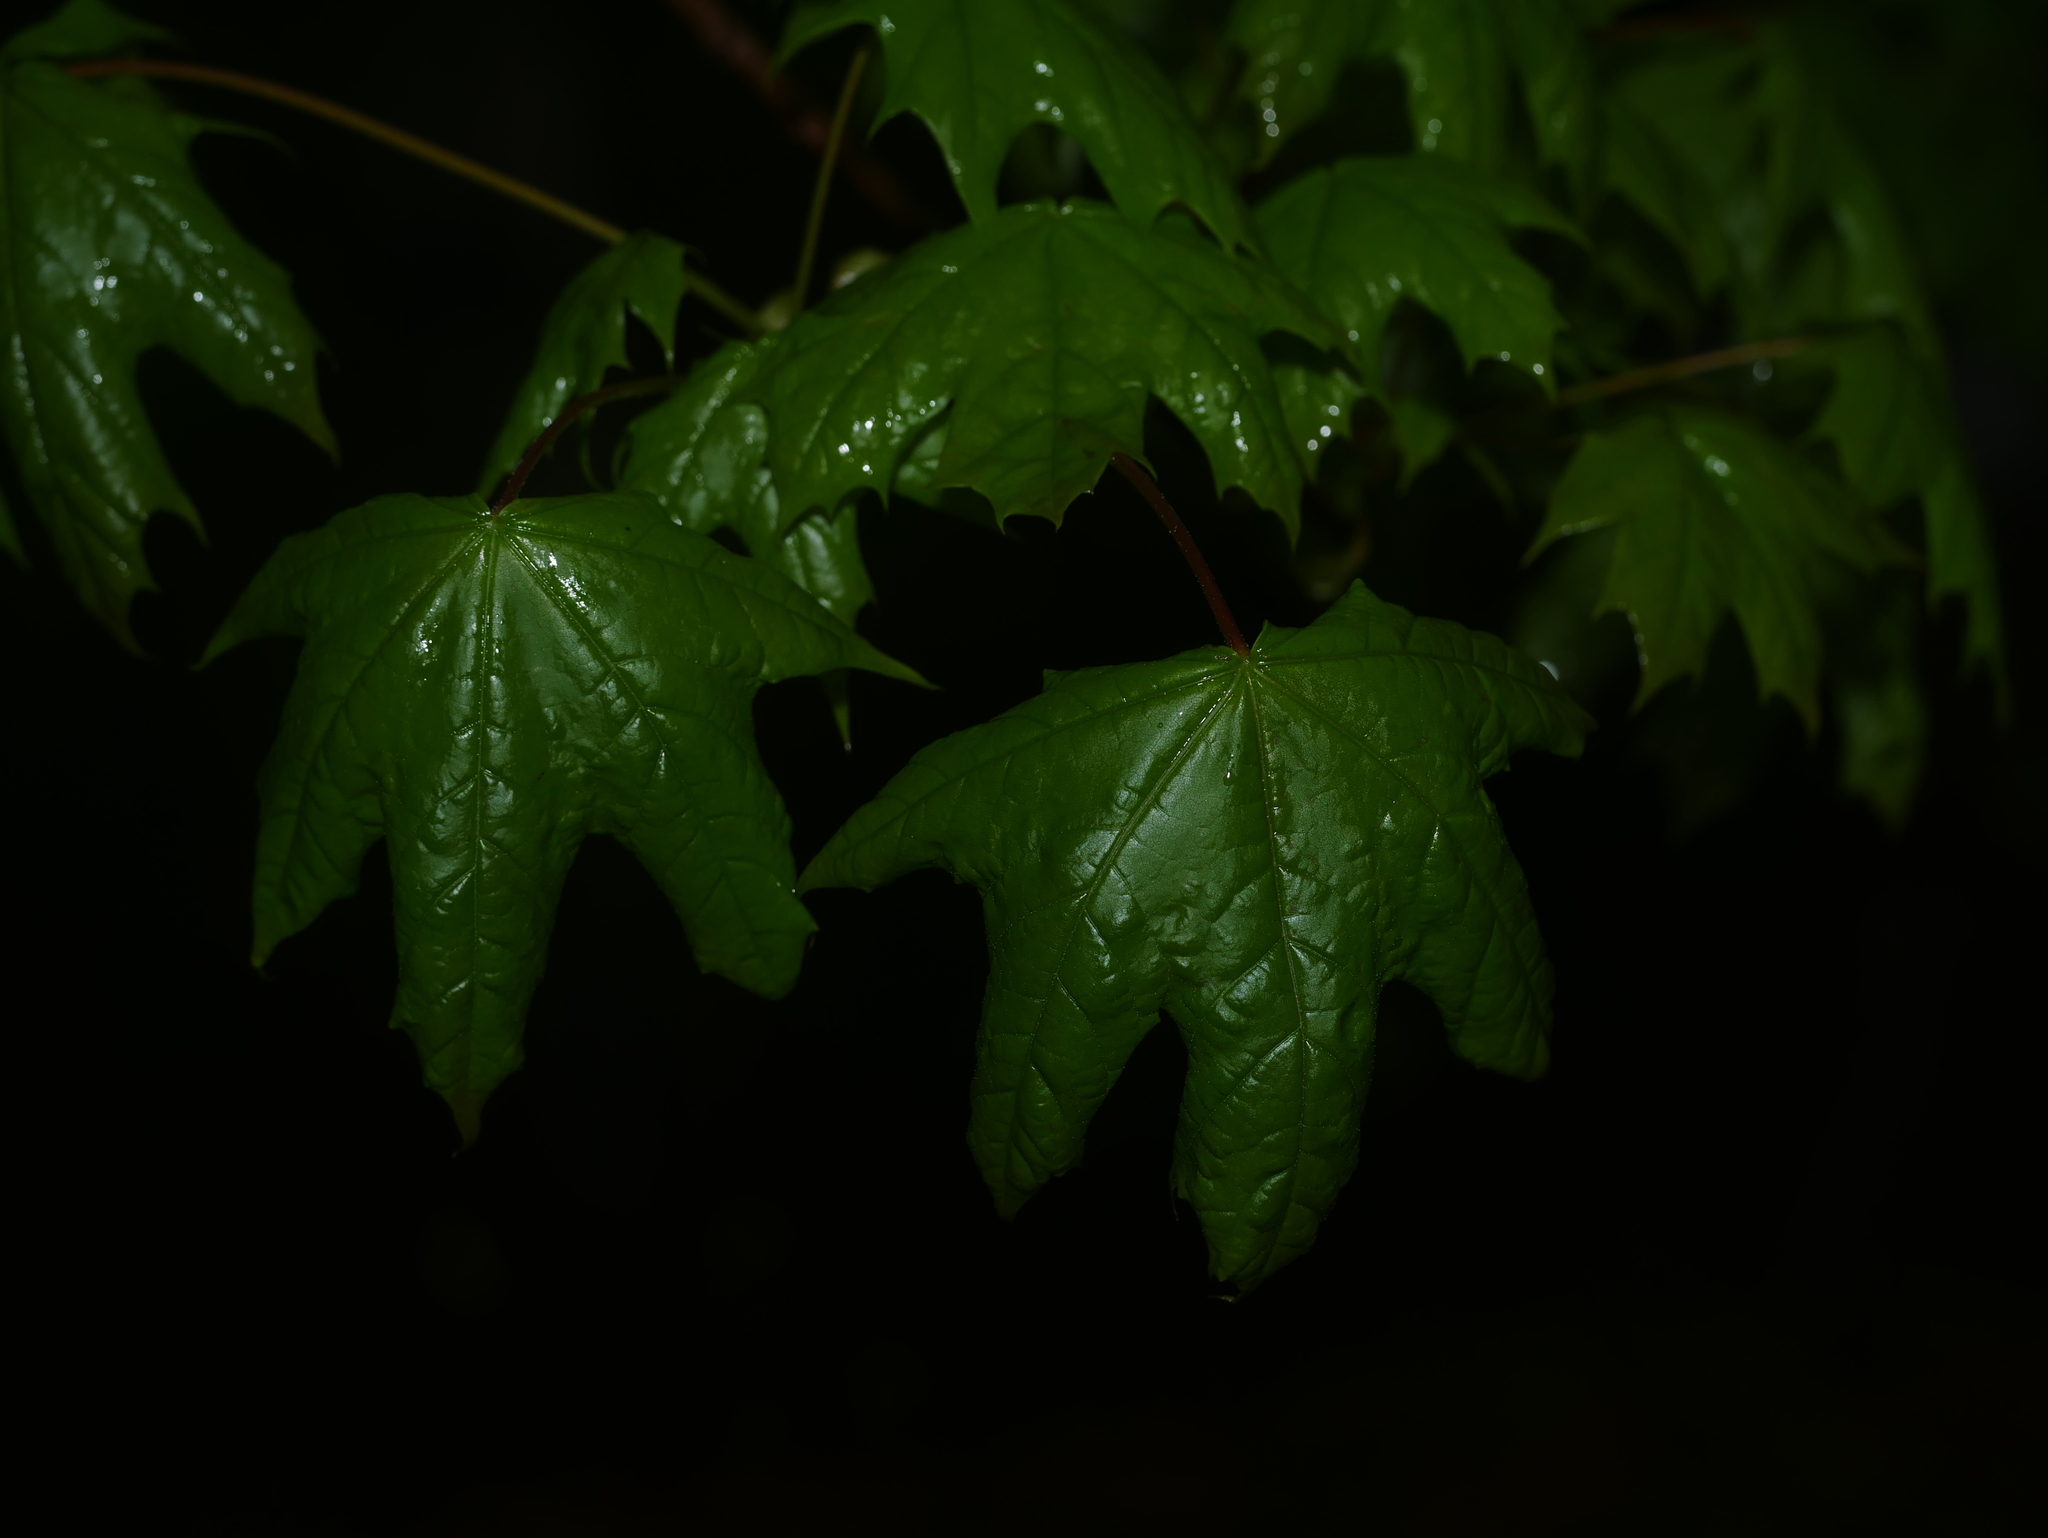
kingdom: Plantae
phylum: Tracheophyta
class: Magnoliopsida
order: Sapindales
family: Sapindaceae
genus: Acer
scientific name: Acer platanoides
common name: Norway maple
